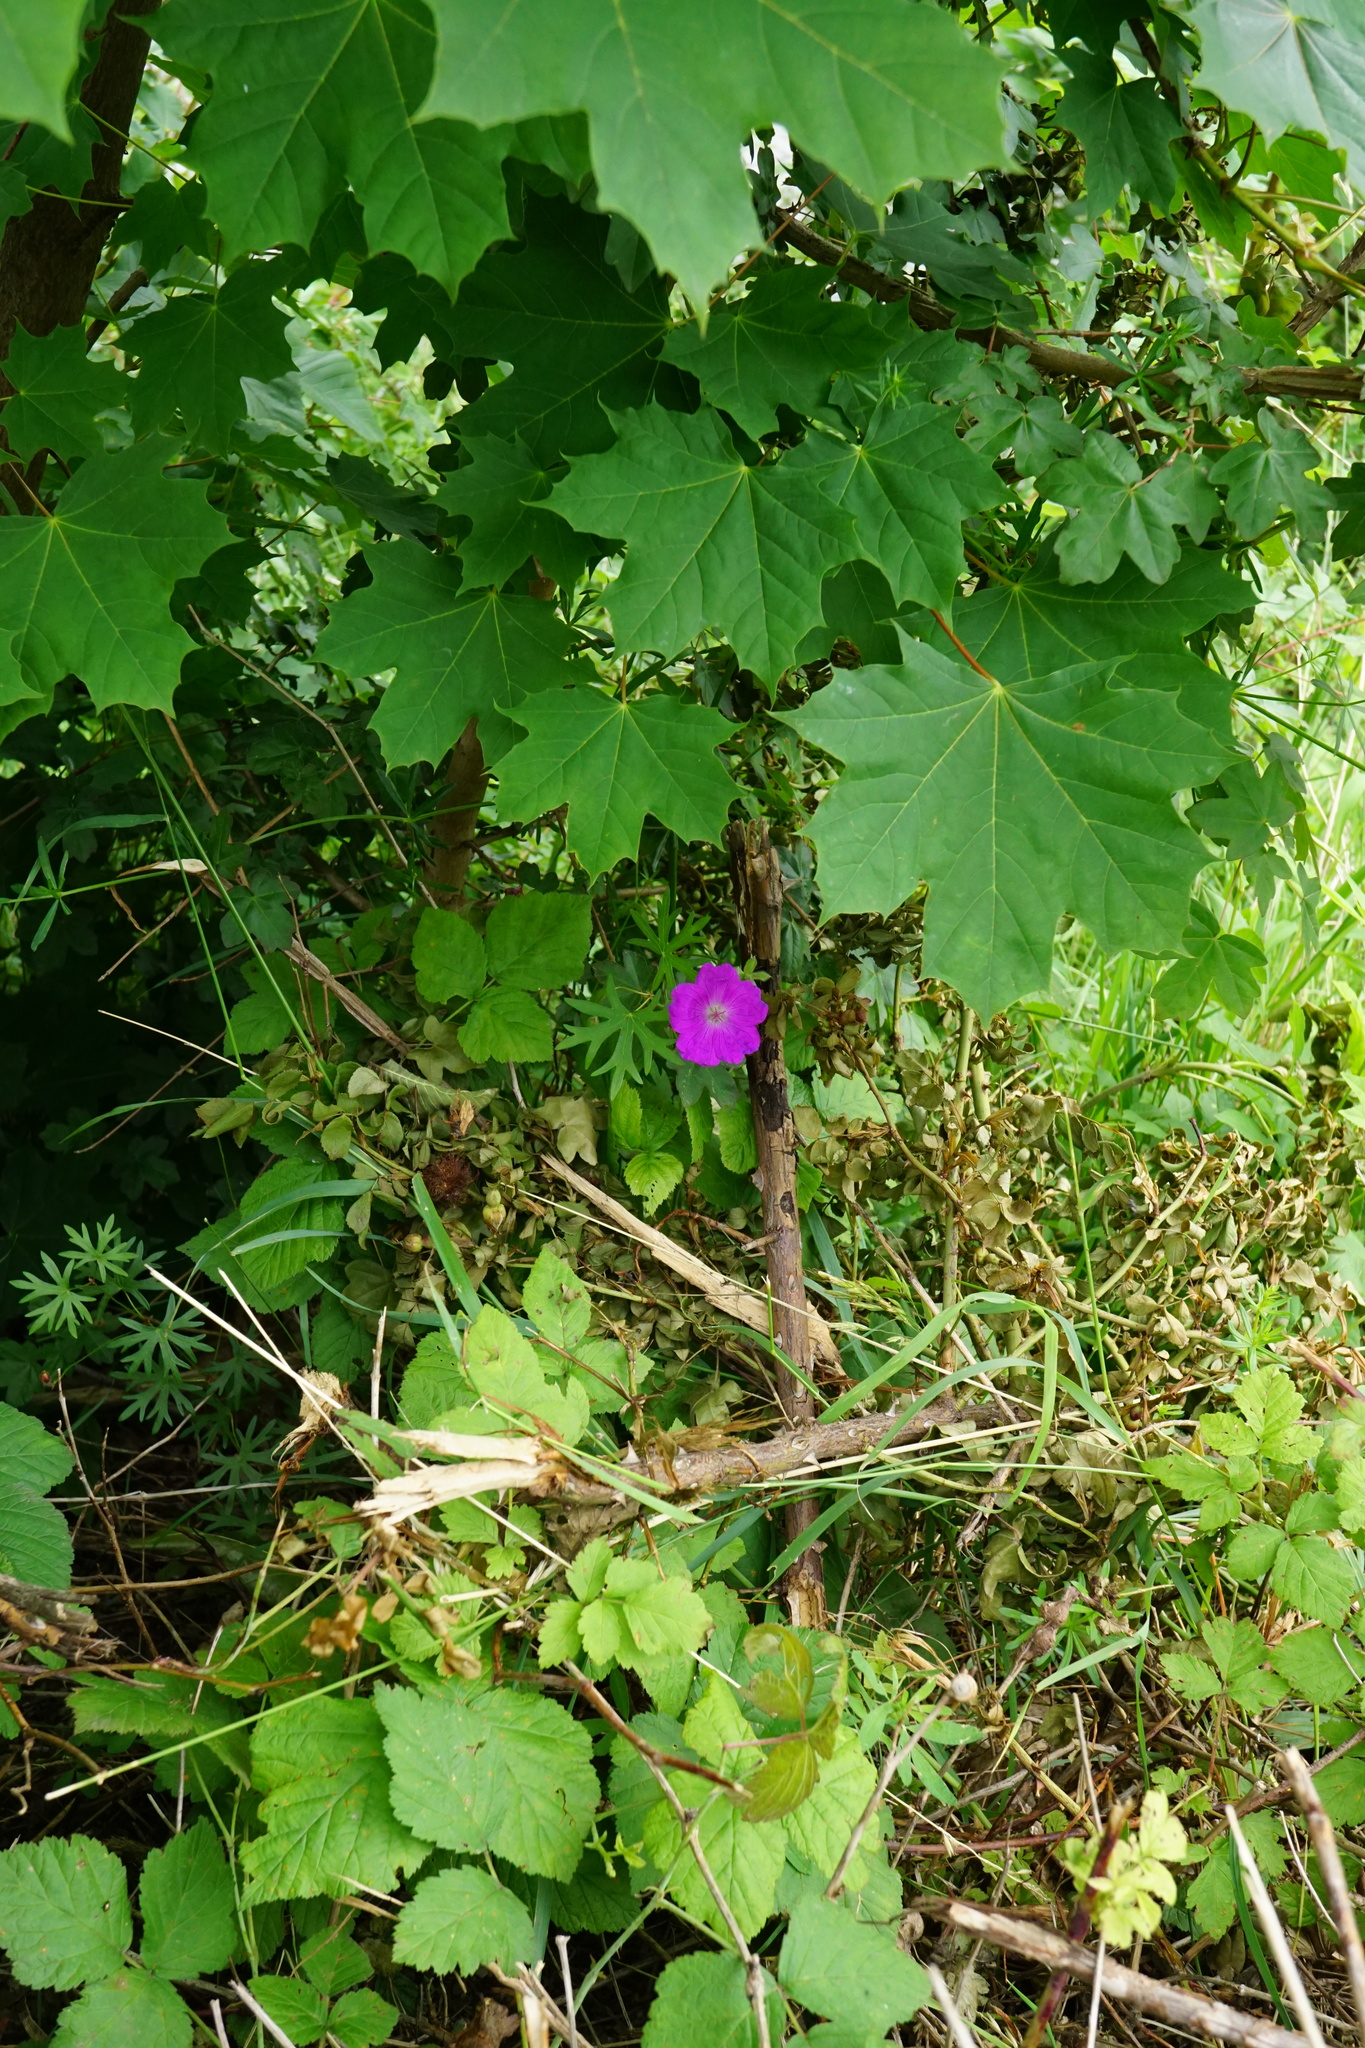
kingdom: Plantae
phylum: Tracheophyta
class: Magnoliopsida
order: Geraniales
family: Geraniaceae
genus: Geranium
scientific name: Geranium sanguineum
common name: Bloody crane's-bill
